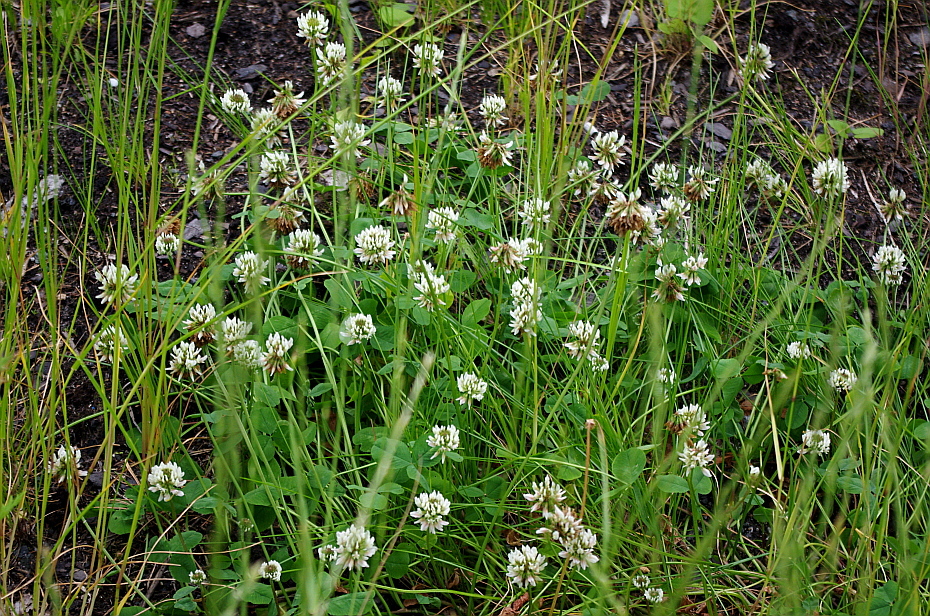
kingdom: Plantae
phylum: Tracheophyta
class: Magnoliopsida
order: Fabales
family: Fabaceae
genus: Trifolium
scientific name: Trifolium repens
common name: White clover
